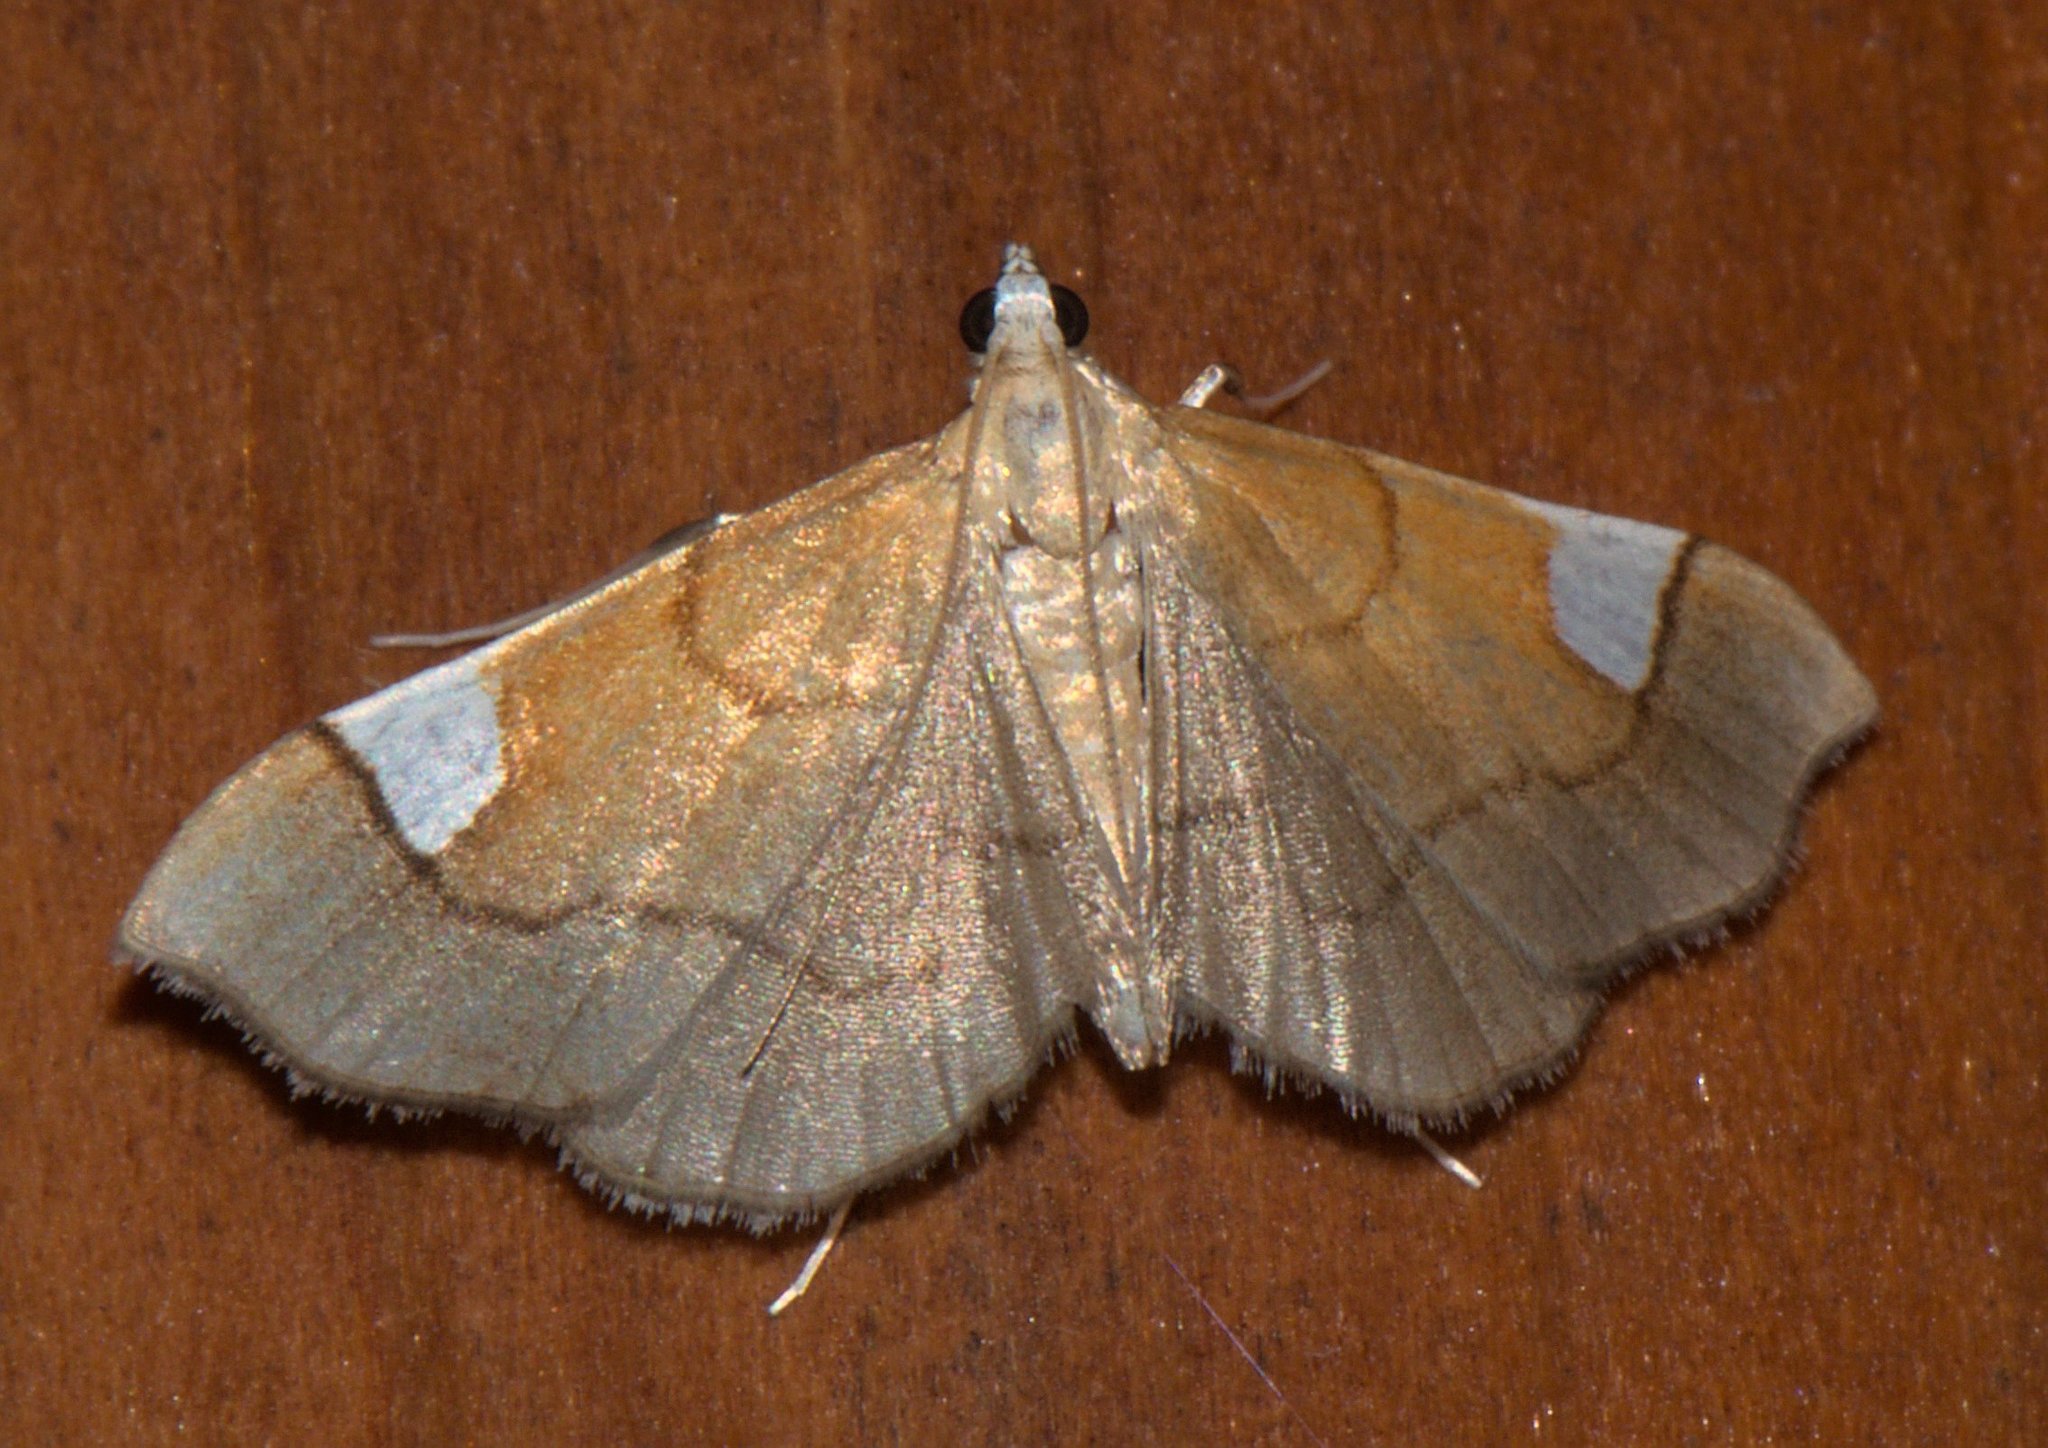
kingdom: Animalia
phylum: Arthropoda
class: Insecta
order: Lepidoptera
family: Crambidae
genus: Diathraustodes
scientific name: Diathraustodes fulvofusa
